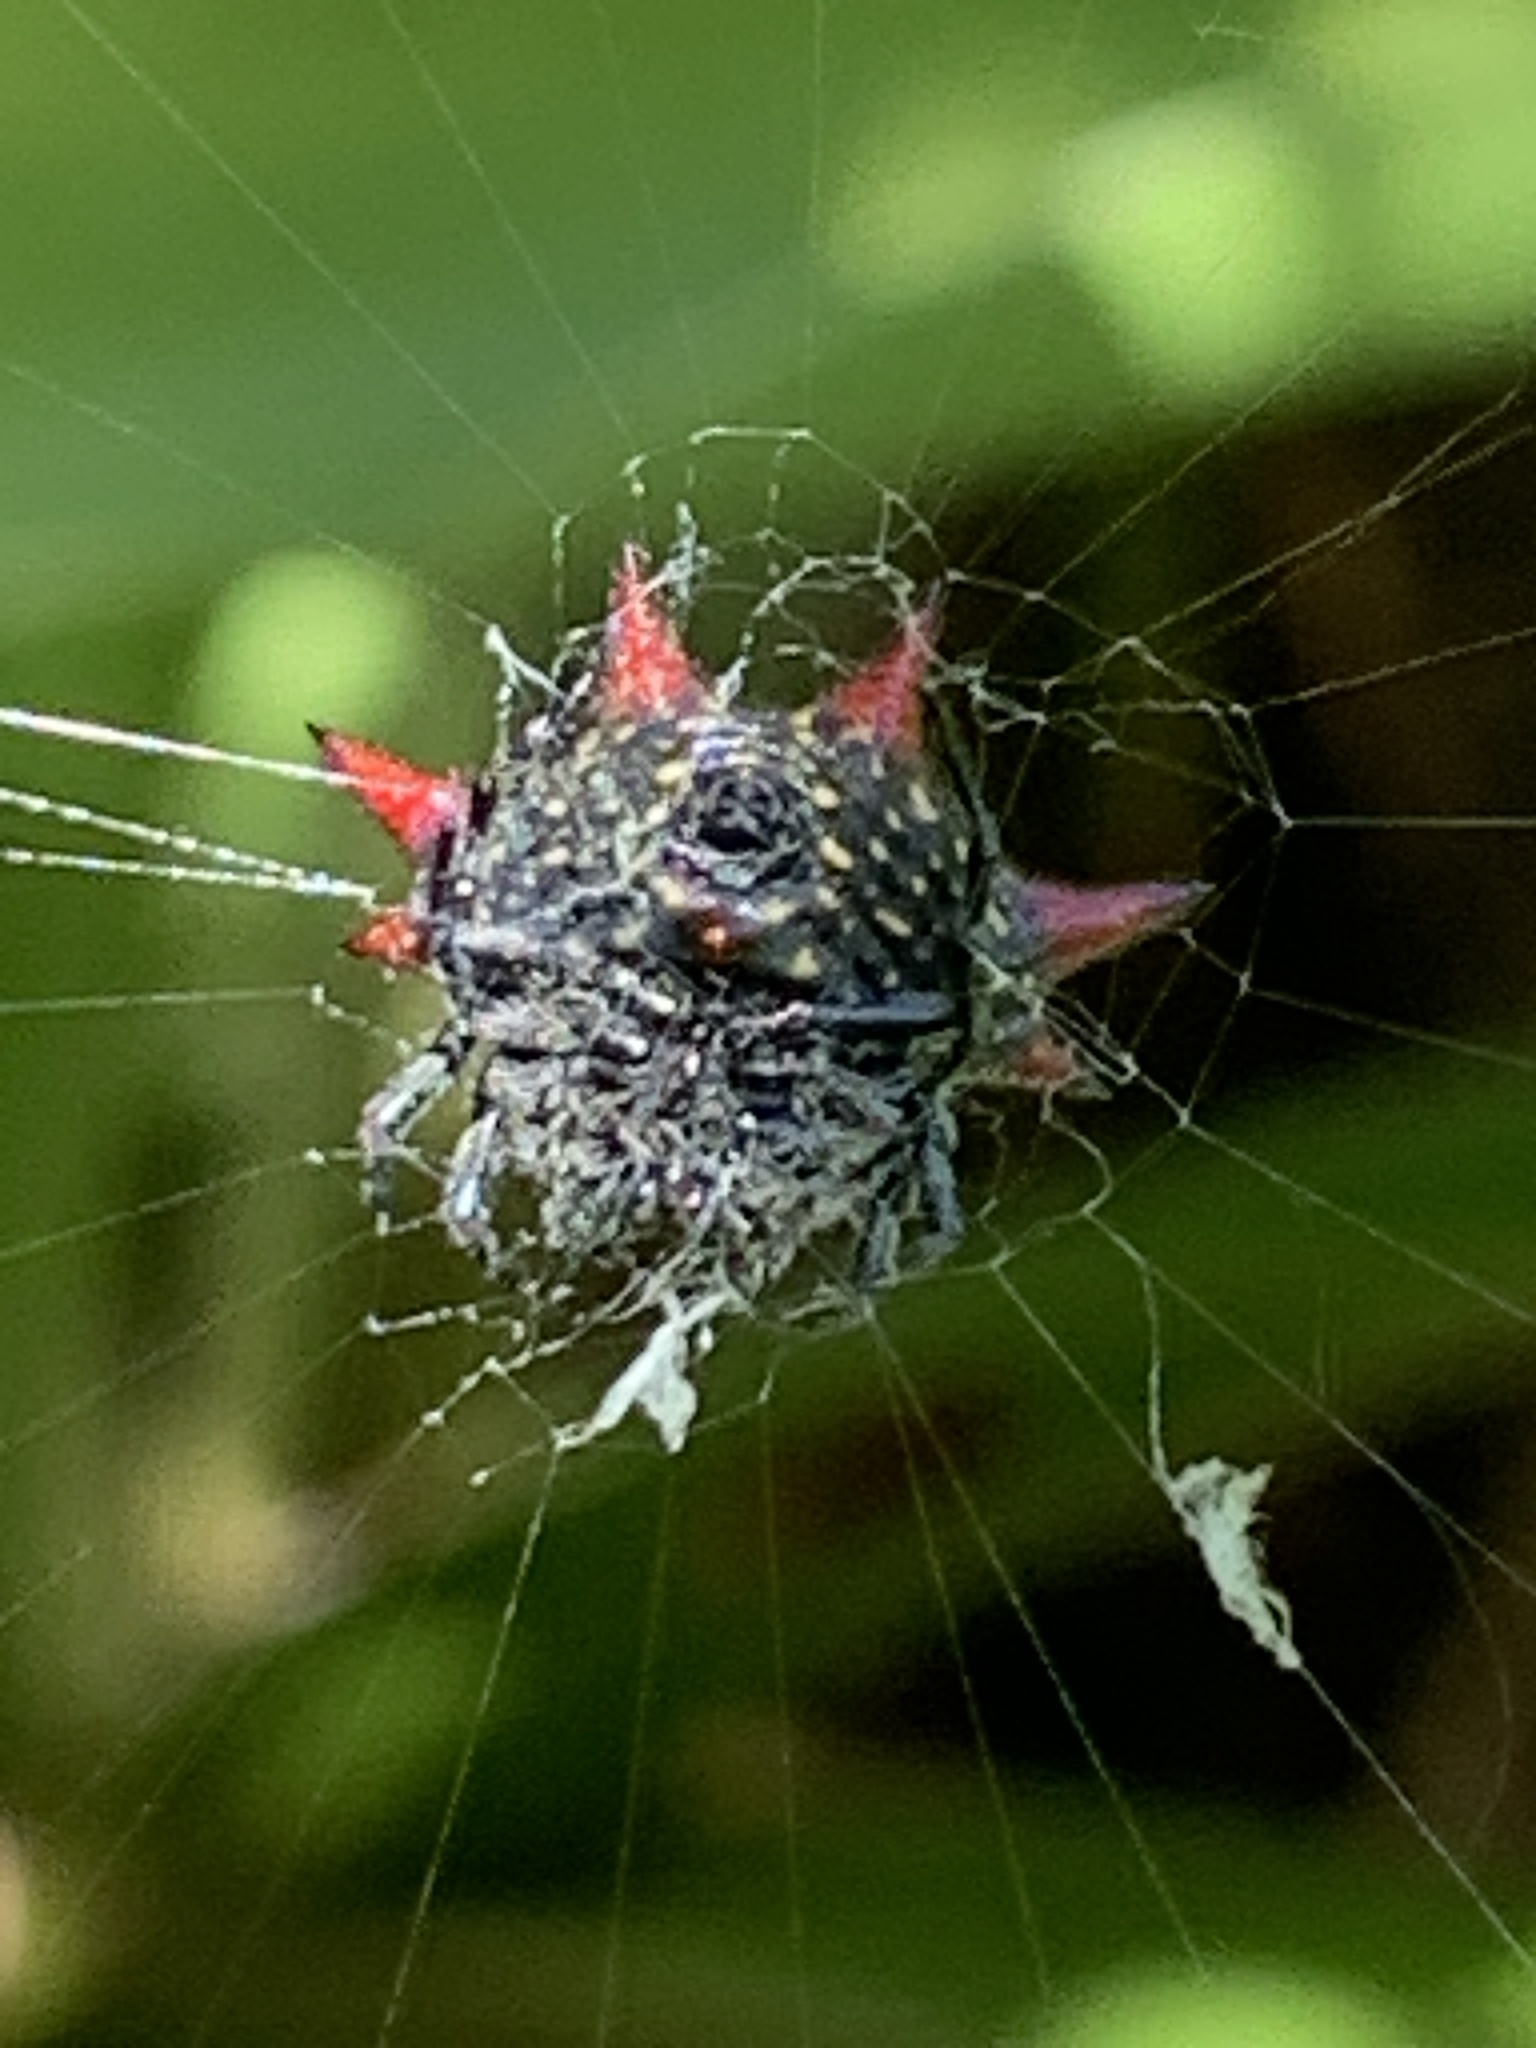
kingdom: Animalia
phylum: Arthropoda
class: Arachnida
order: Araneae
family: Araneidae
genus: Gasteracantha
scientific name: Gasteracantha cancriformis
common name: Orb weavers
